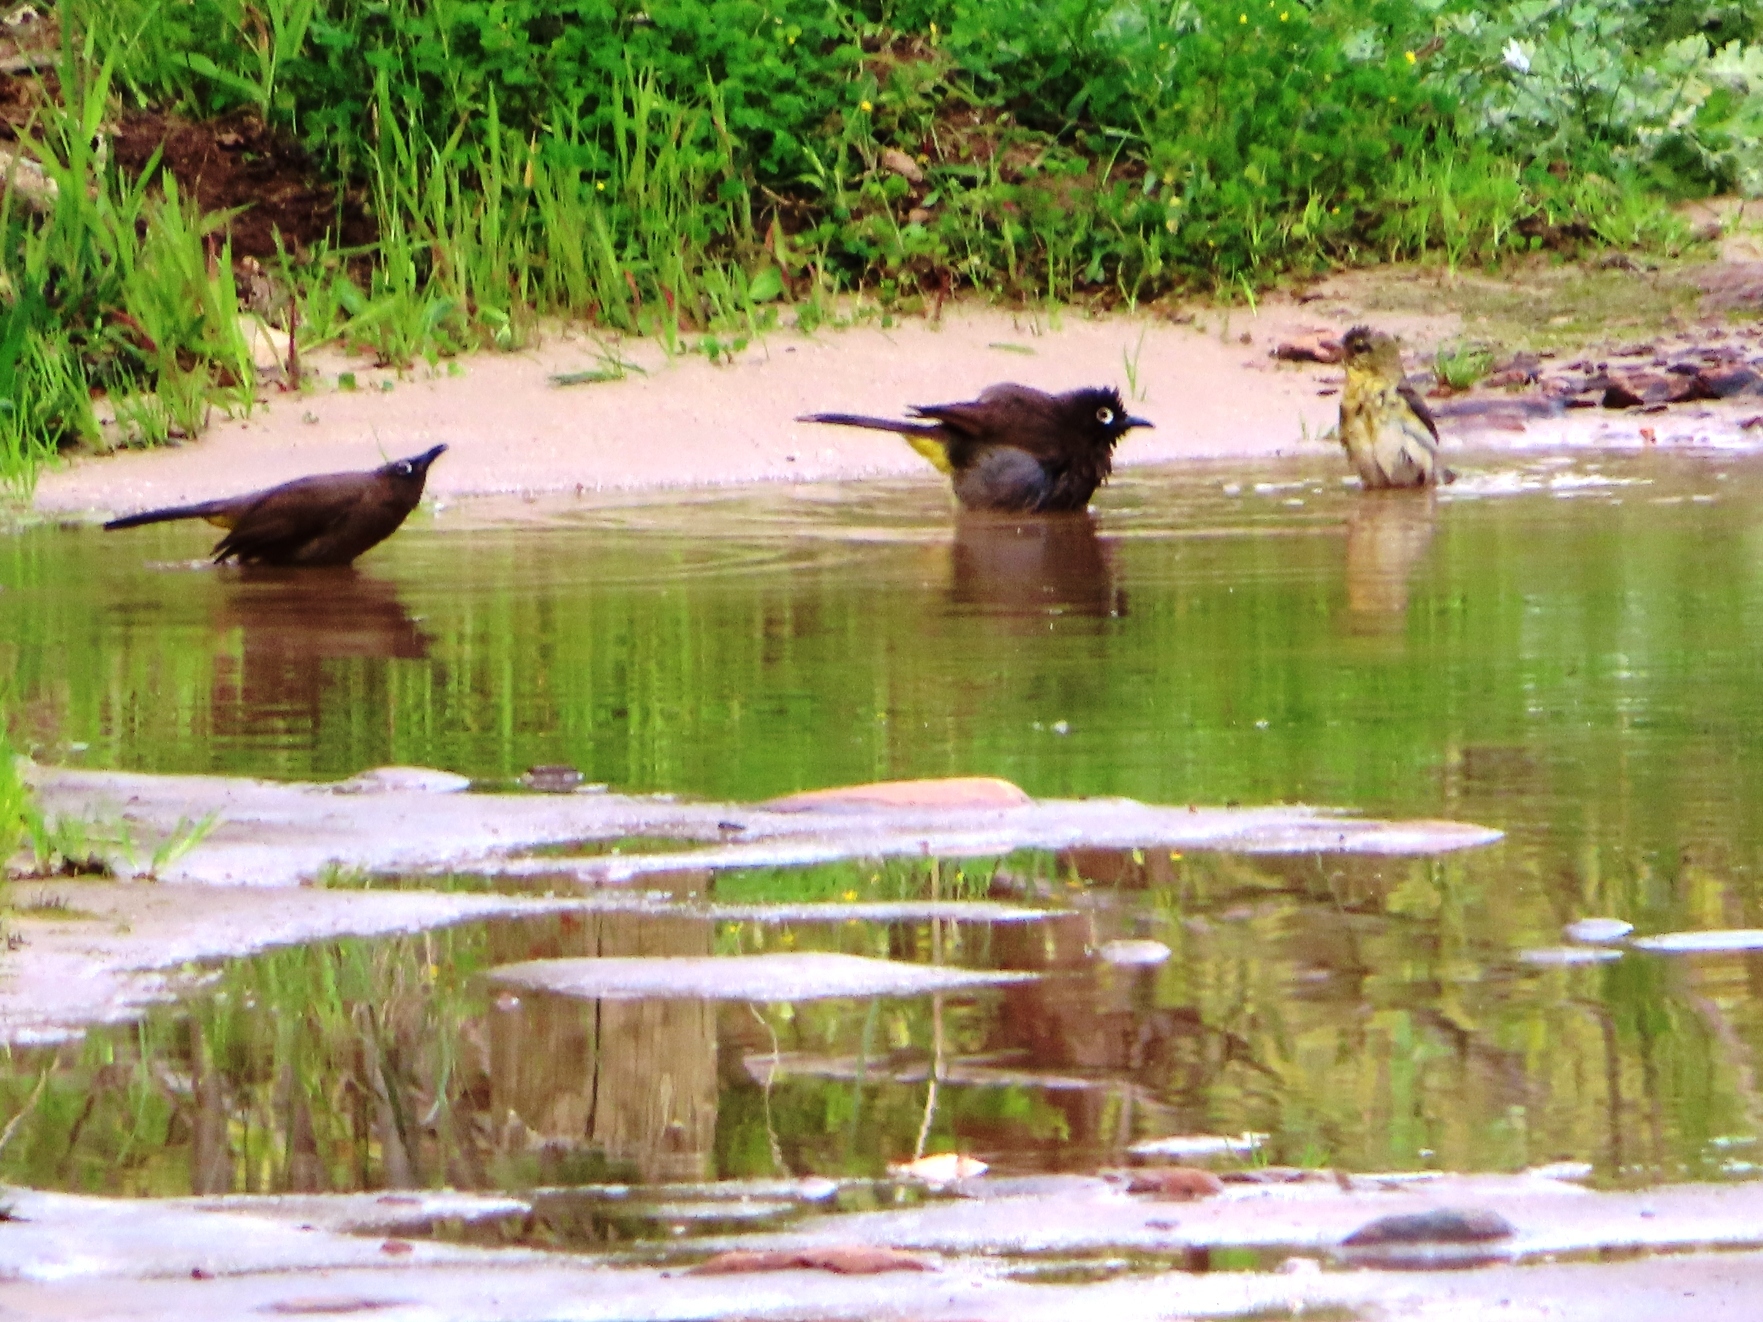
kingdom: Animalia
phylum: Chordata
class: Aves
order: Passeriformes
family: Pycnonotidae
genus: Pycnonotus
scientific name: Pycnonotus capensis
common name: Cape bulbul
